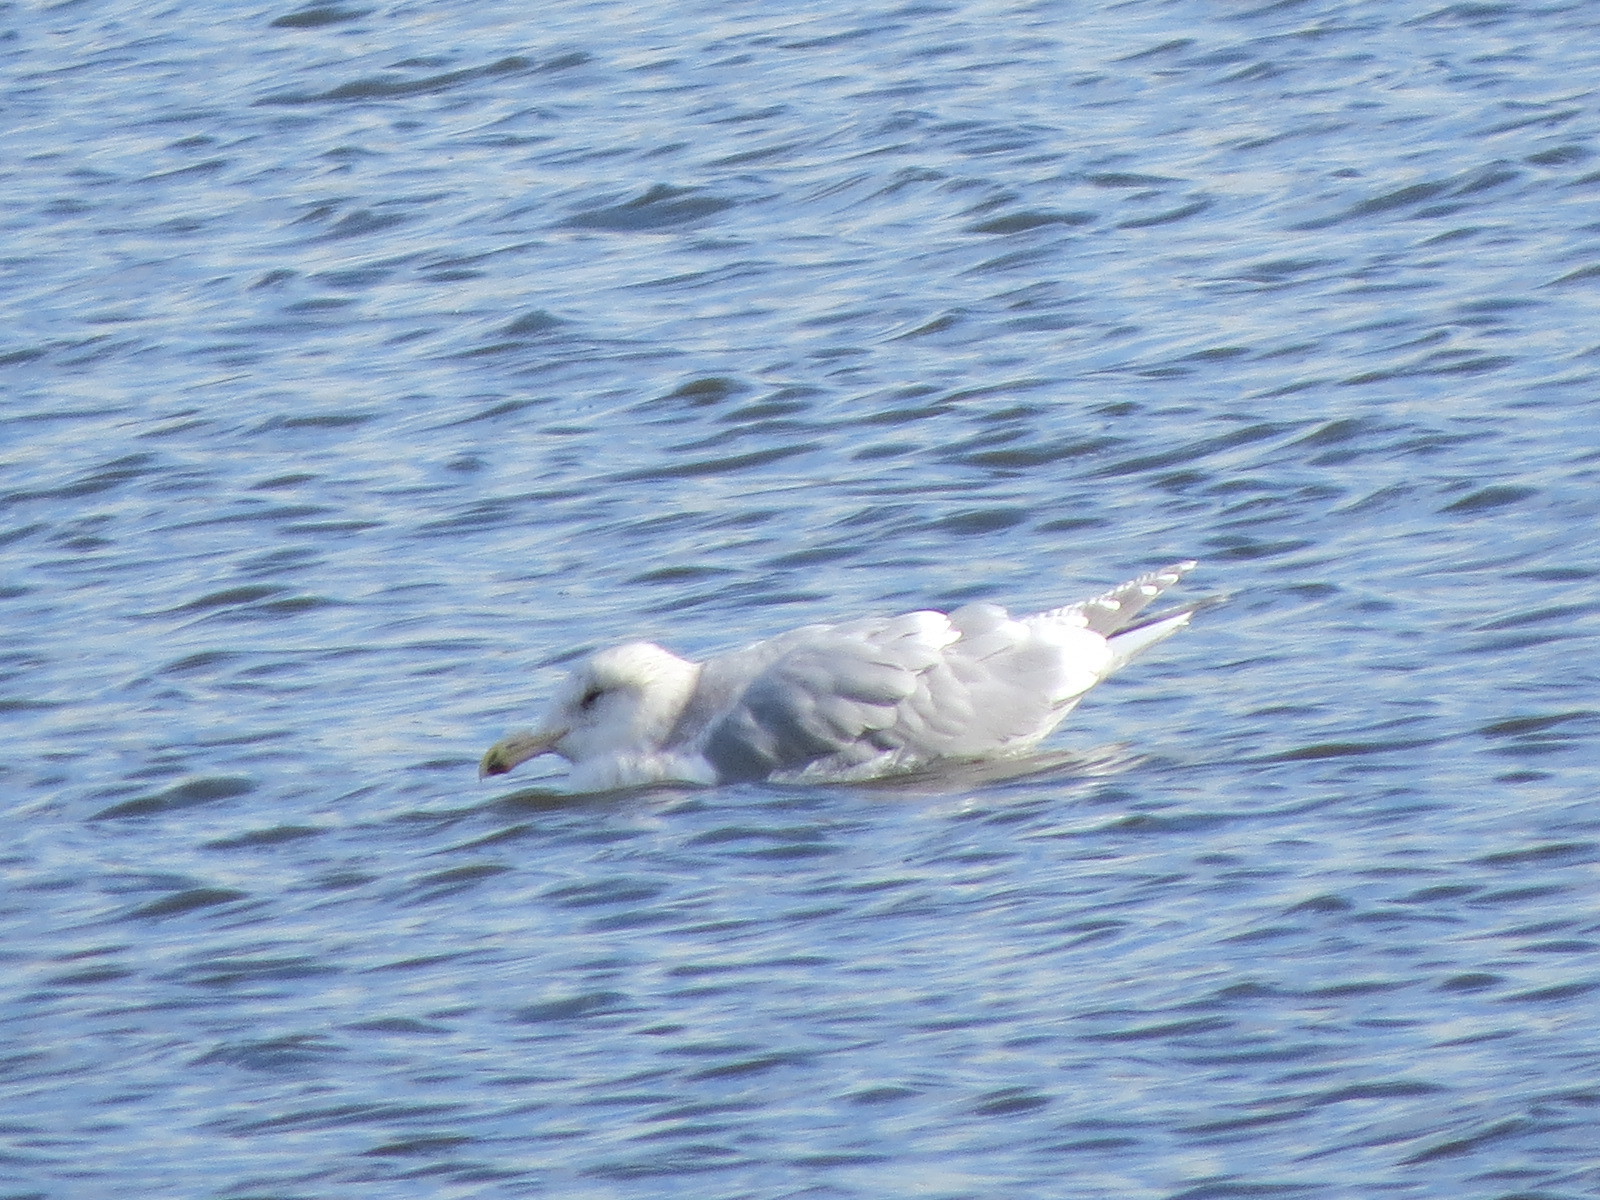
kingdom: Animalia
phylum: Chordata
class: Aves
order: Charadriiformes
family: Laridae
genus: Larus
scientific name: Larus glaucescens
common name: Glaucous-winged gull
